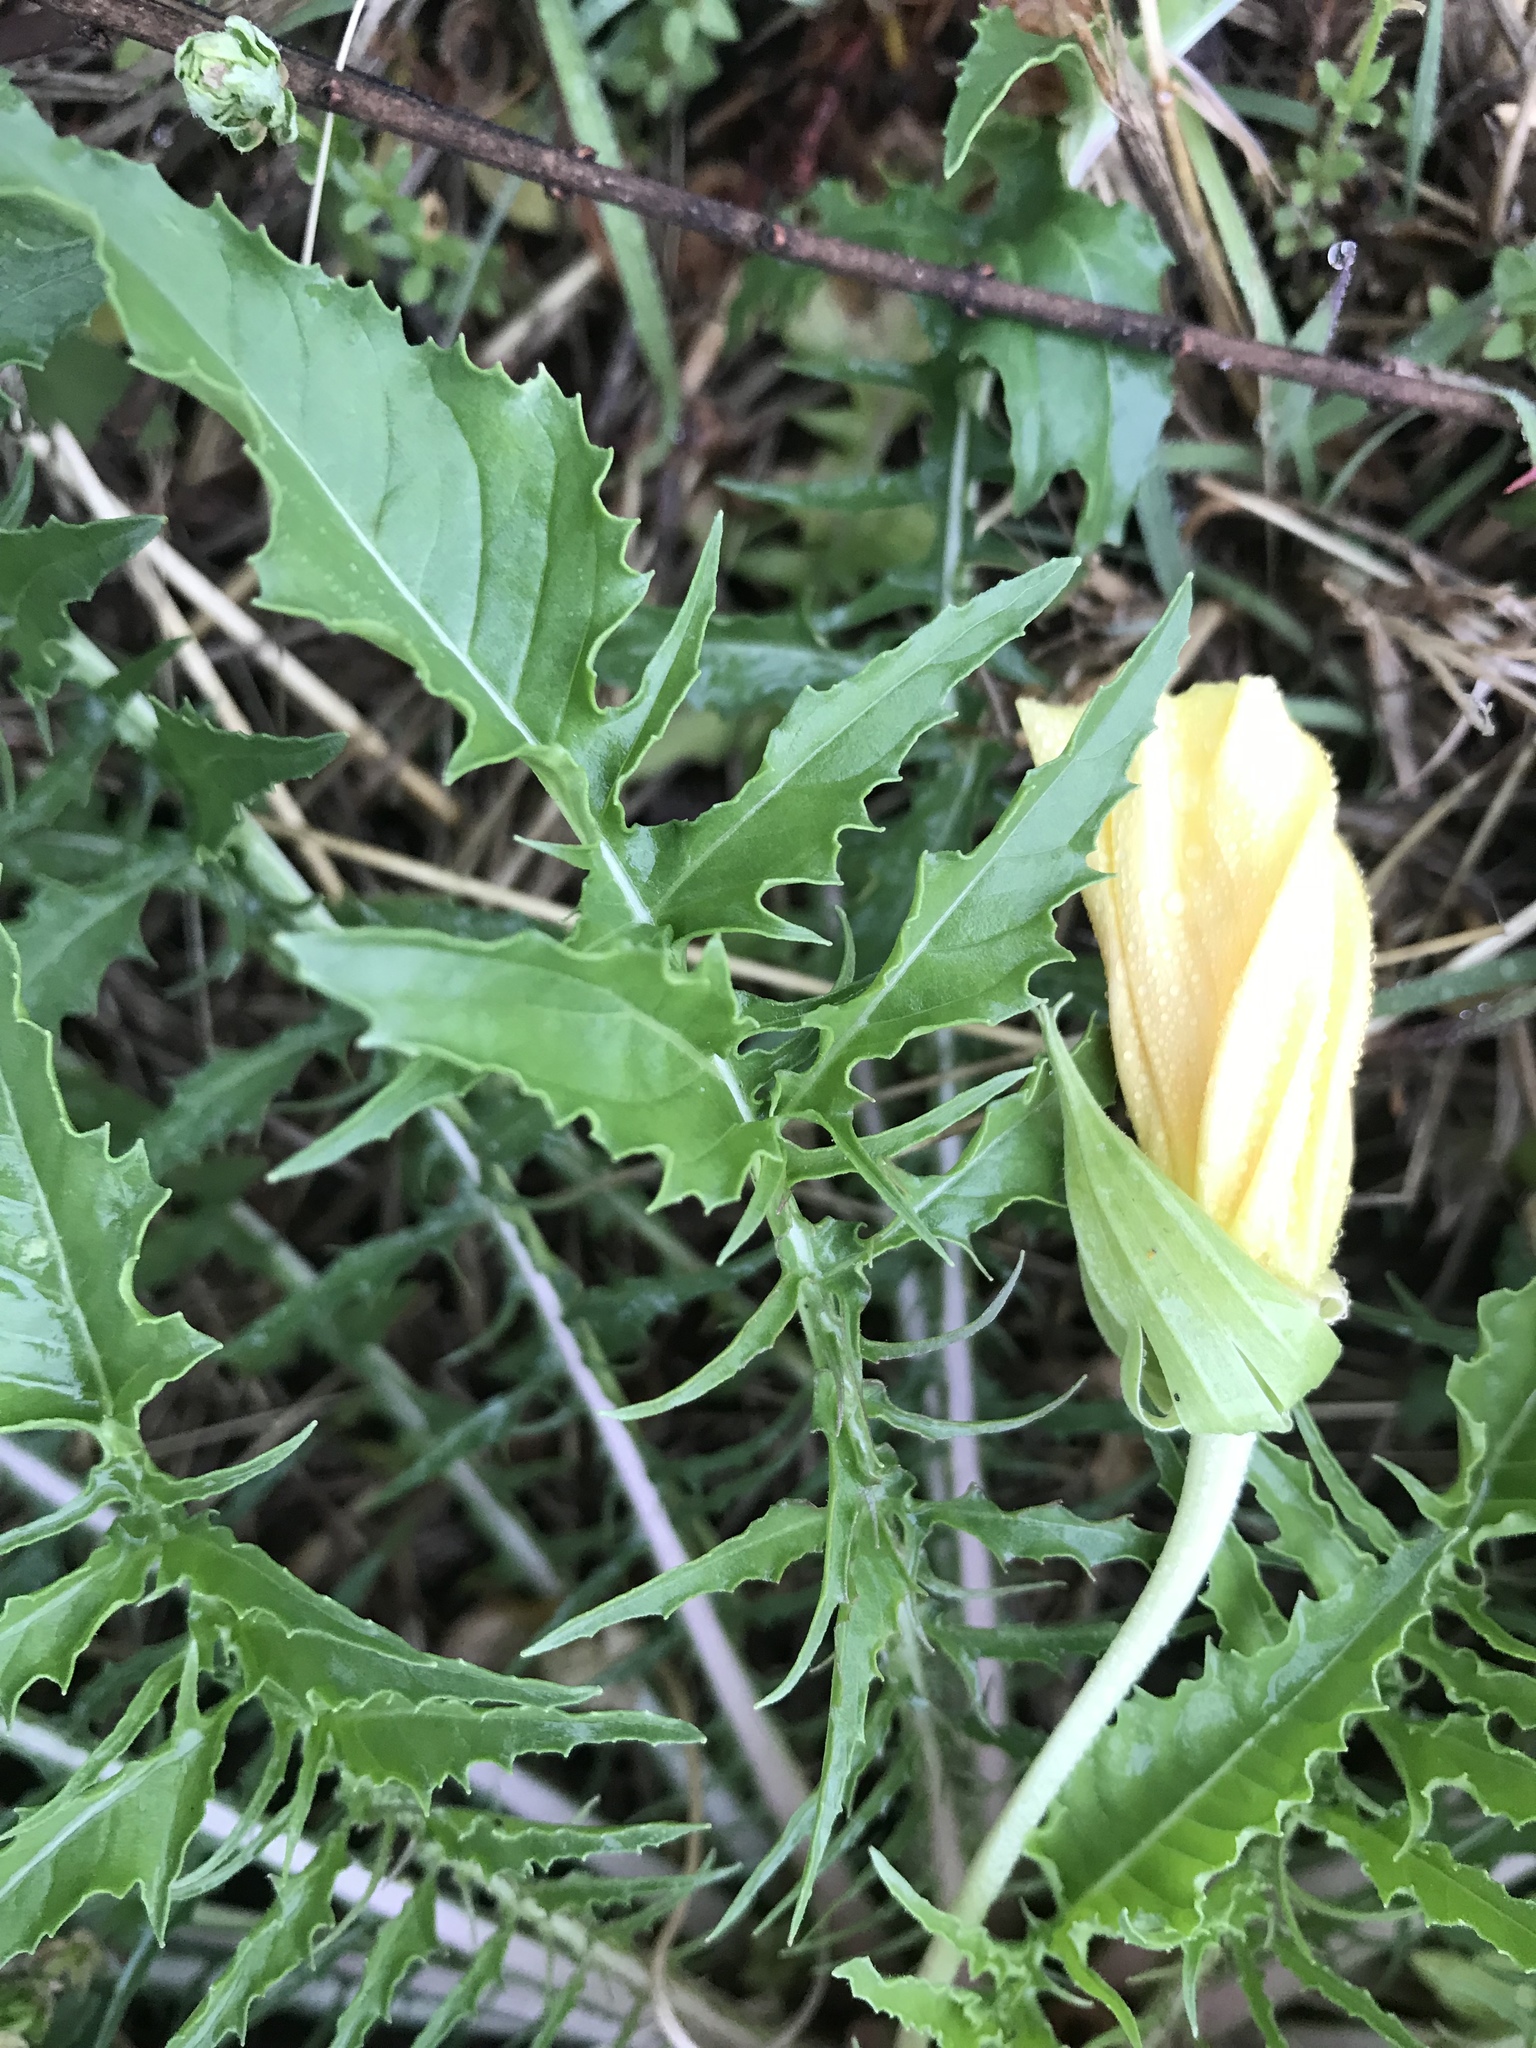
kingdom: Plantae
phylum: Tracheophyta
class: Magnoliopsida
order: Myrtales
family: Onagraceae
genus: Oenothera
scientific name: Oenothera triloba
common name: Sessile evening-primrose
